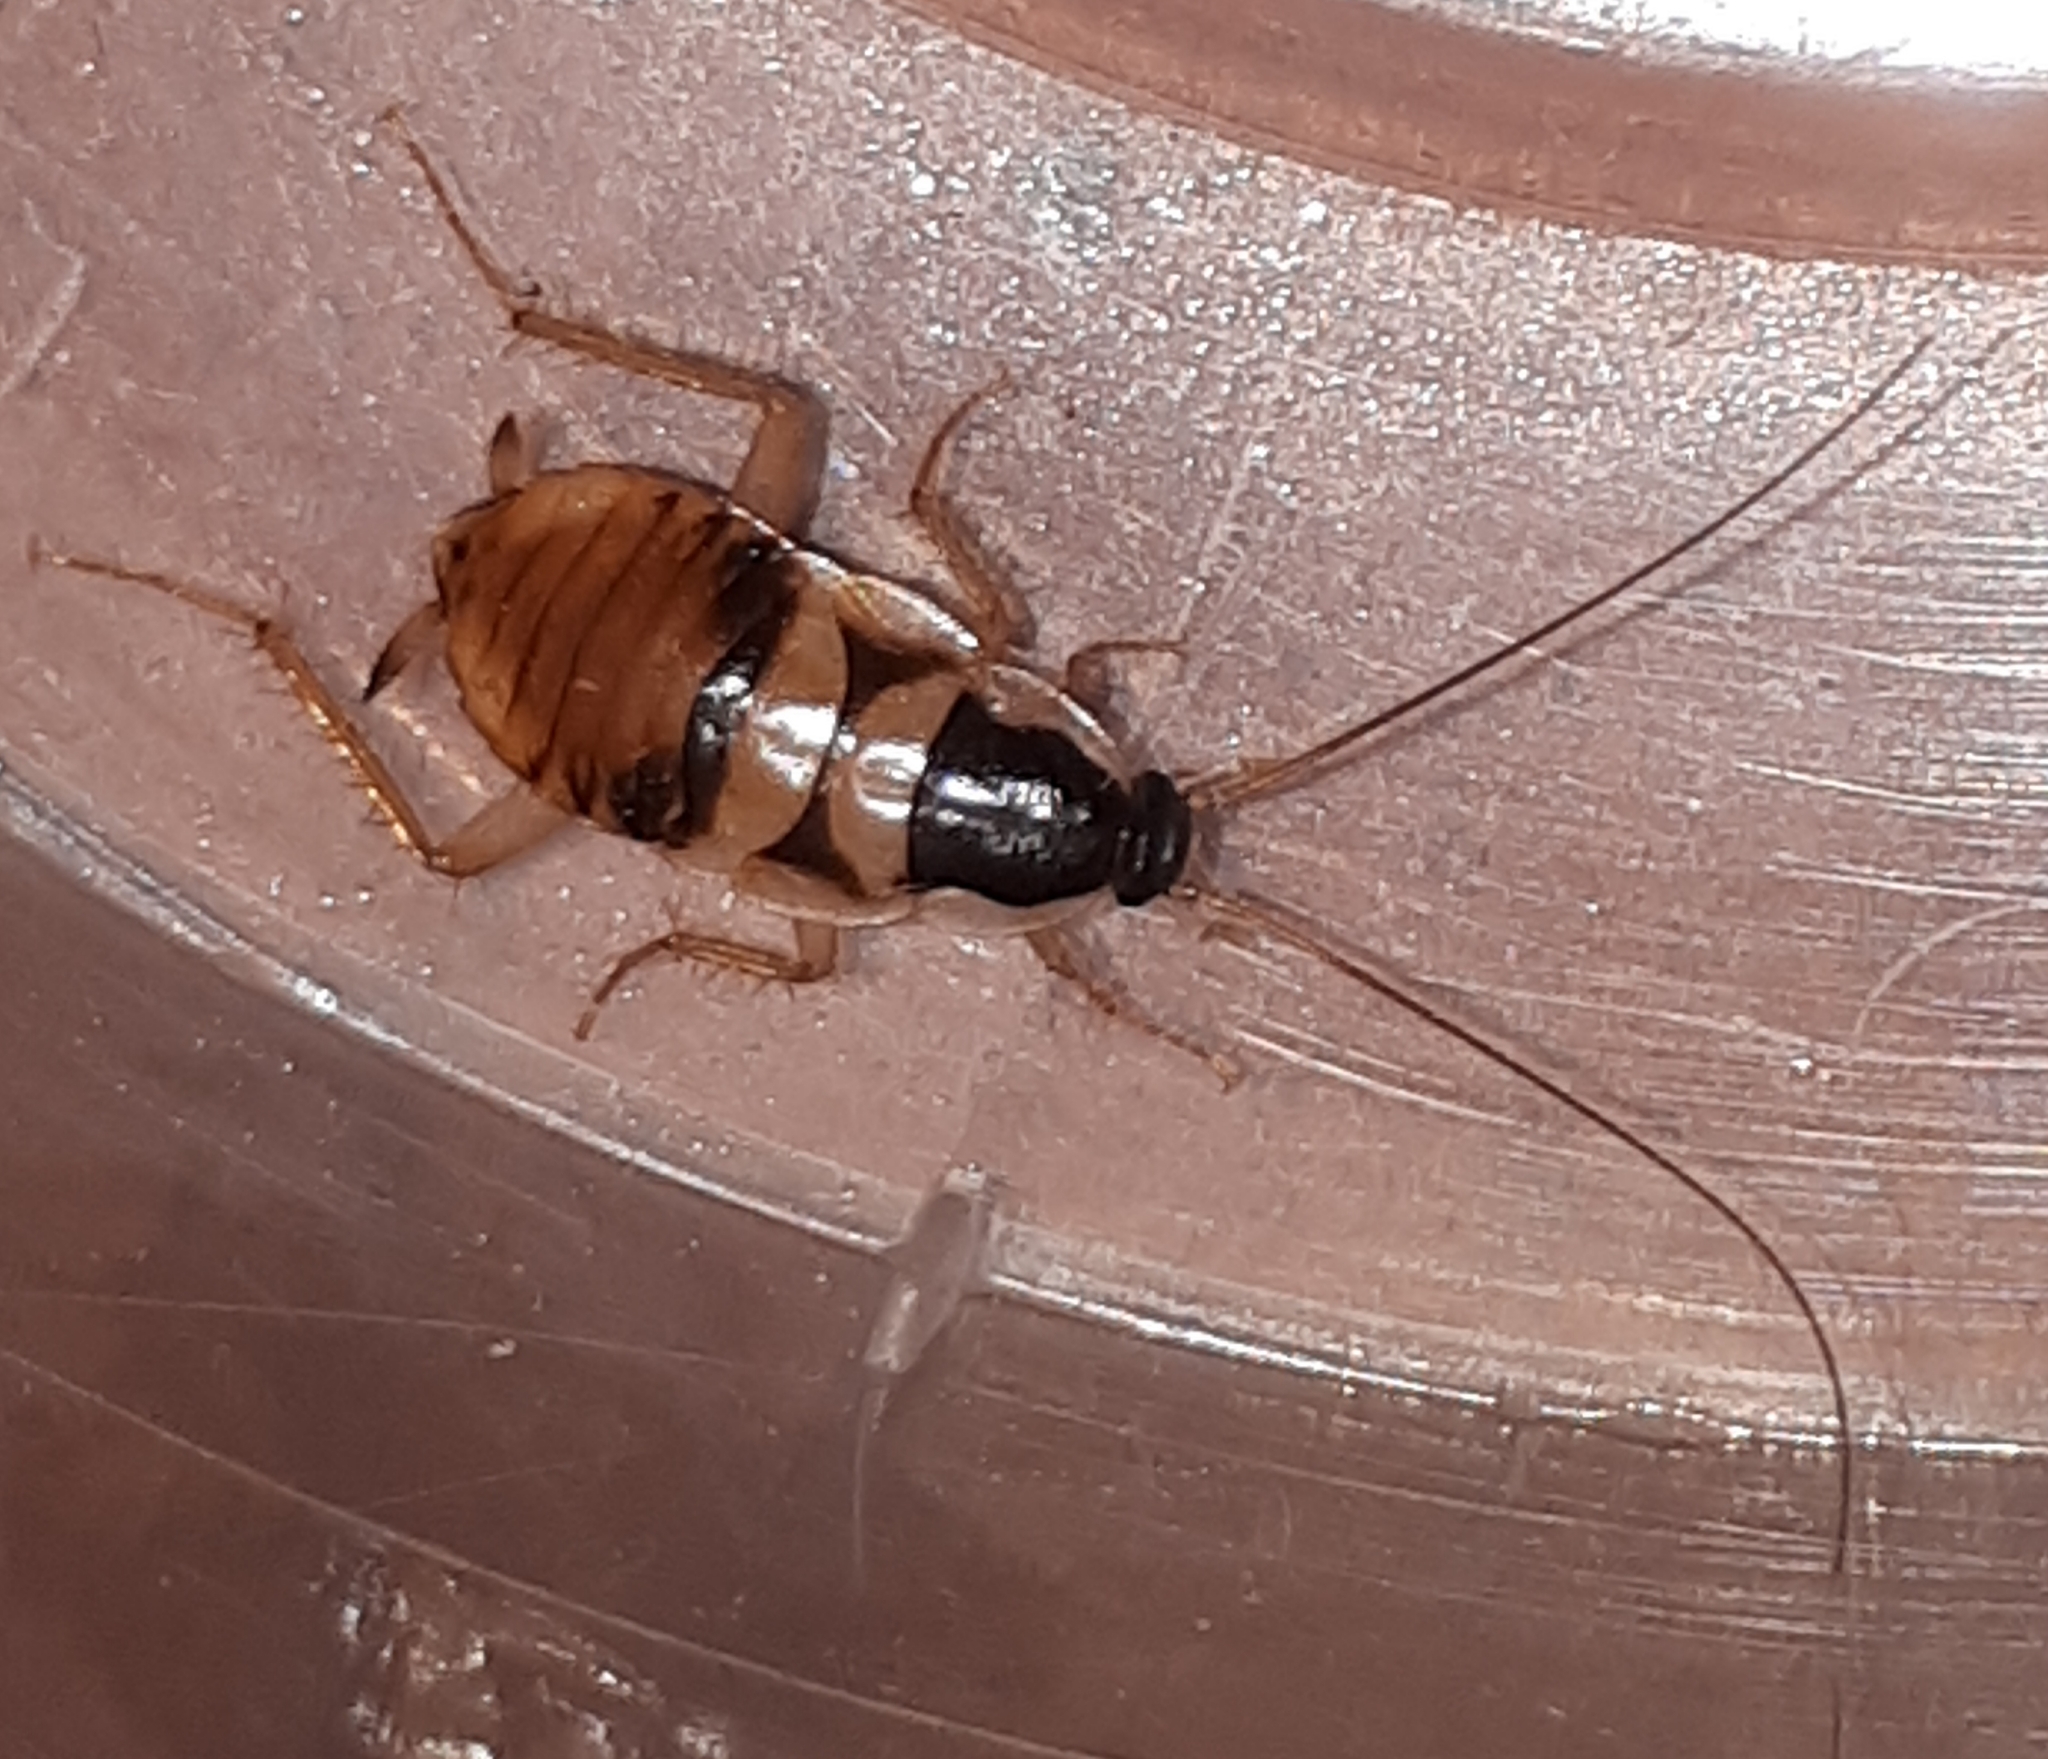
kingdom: Animalia
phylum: Arthropoda
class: Insecta
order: Blattodea
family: Ectobiidae
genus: Supella
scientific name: Supella longipalpa
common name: Brown-banded cockroach
